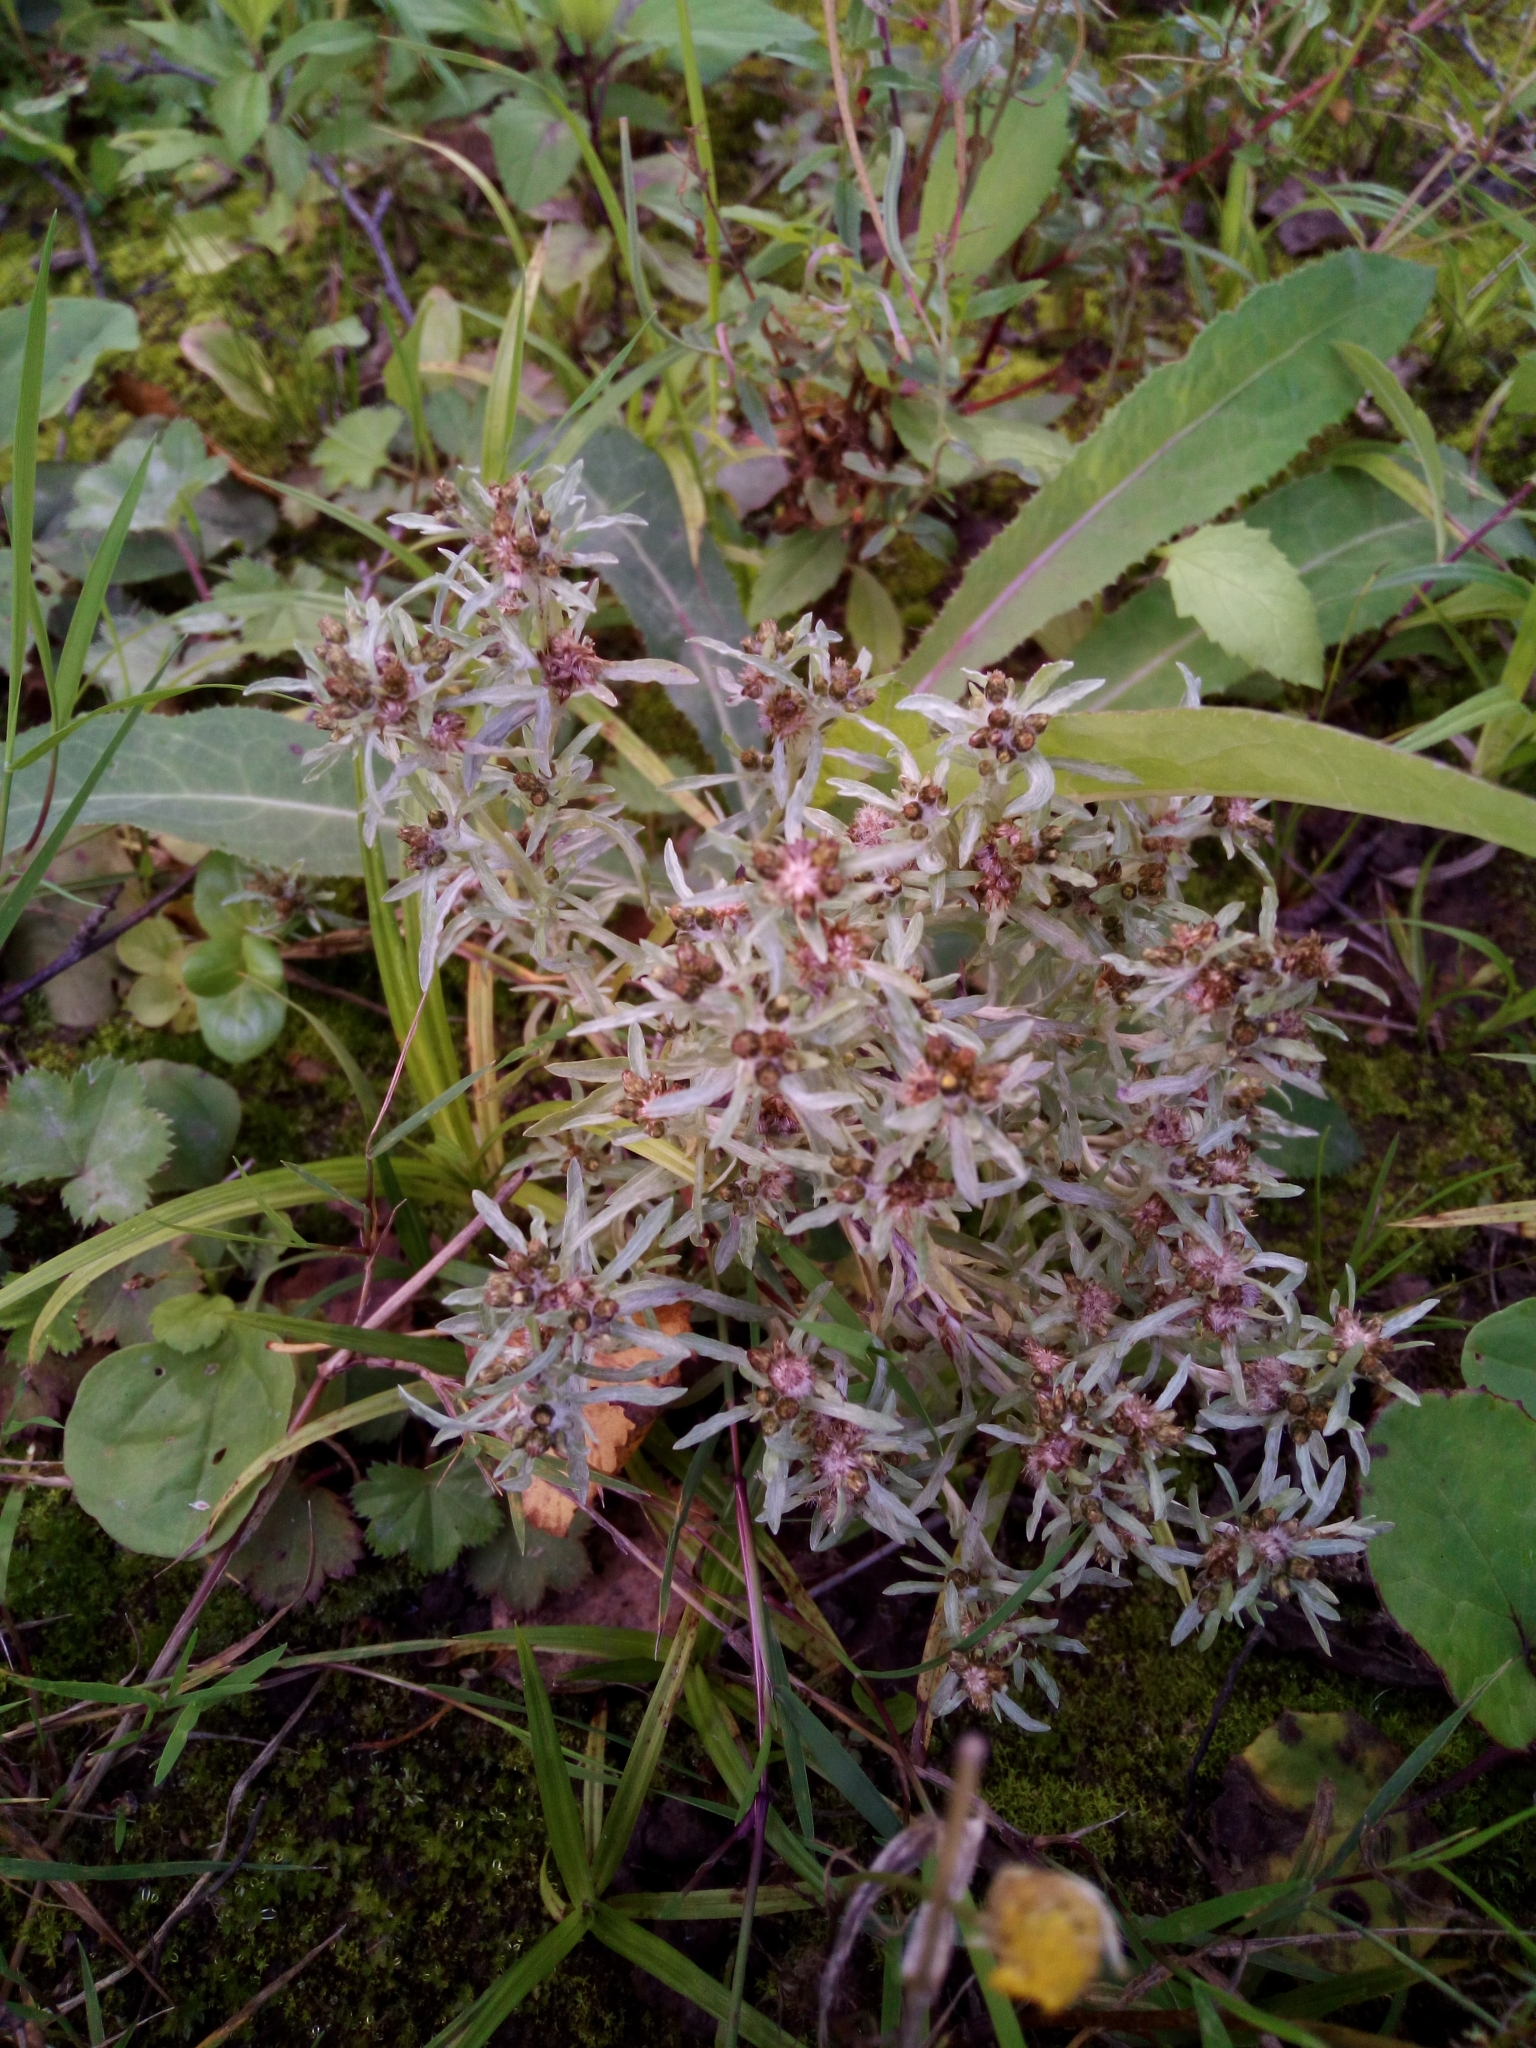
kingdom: Plantae
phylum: Tracheophyta
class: Magnoliopsida
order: Asterales
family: Asteraceae
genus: Gnaphalium
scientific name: Gnaphalium uliginosum
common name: Marsh cudweed
